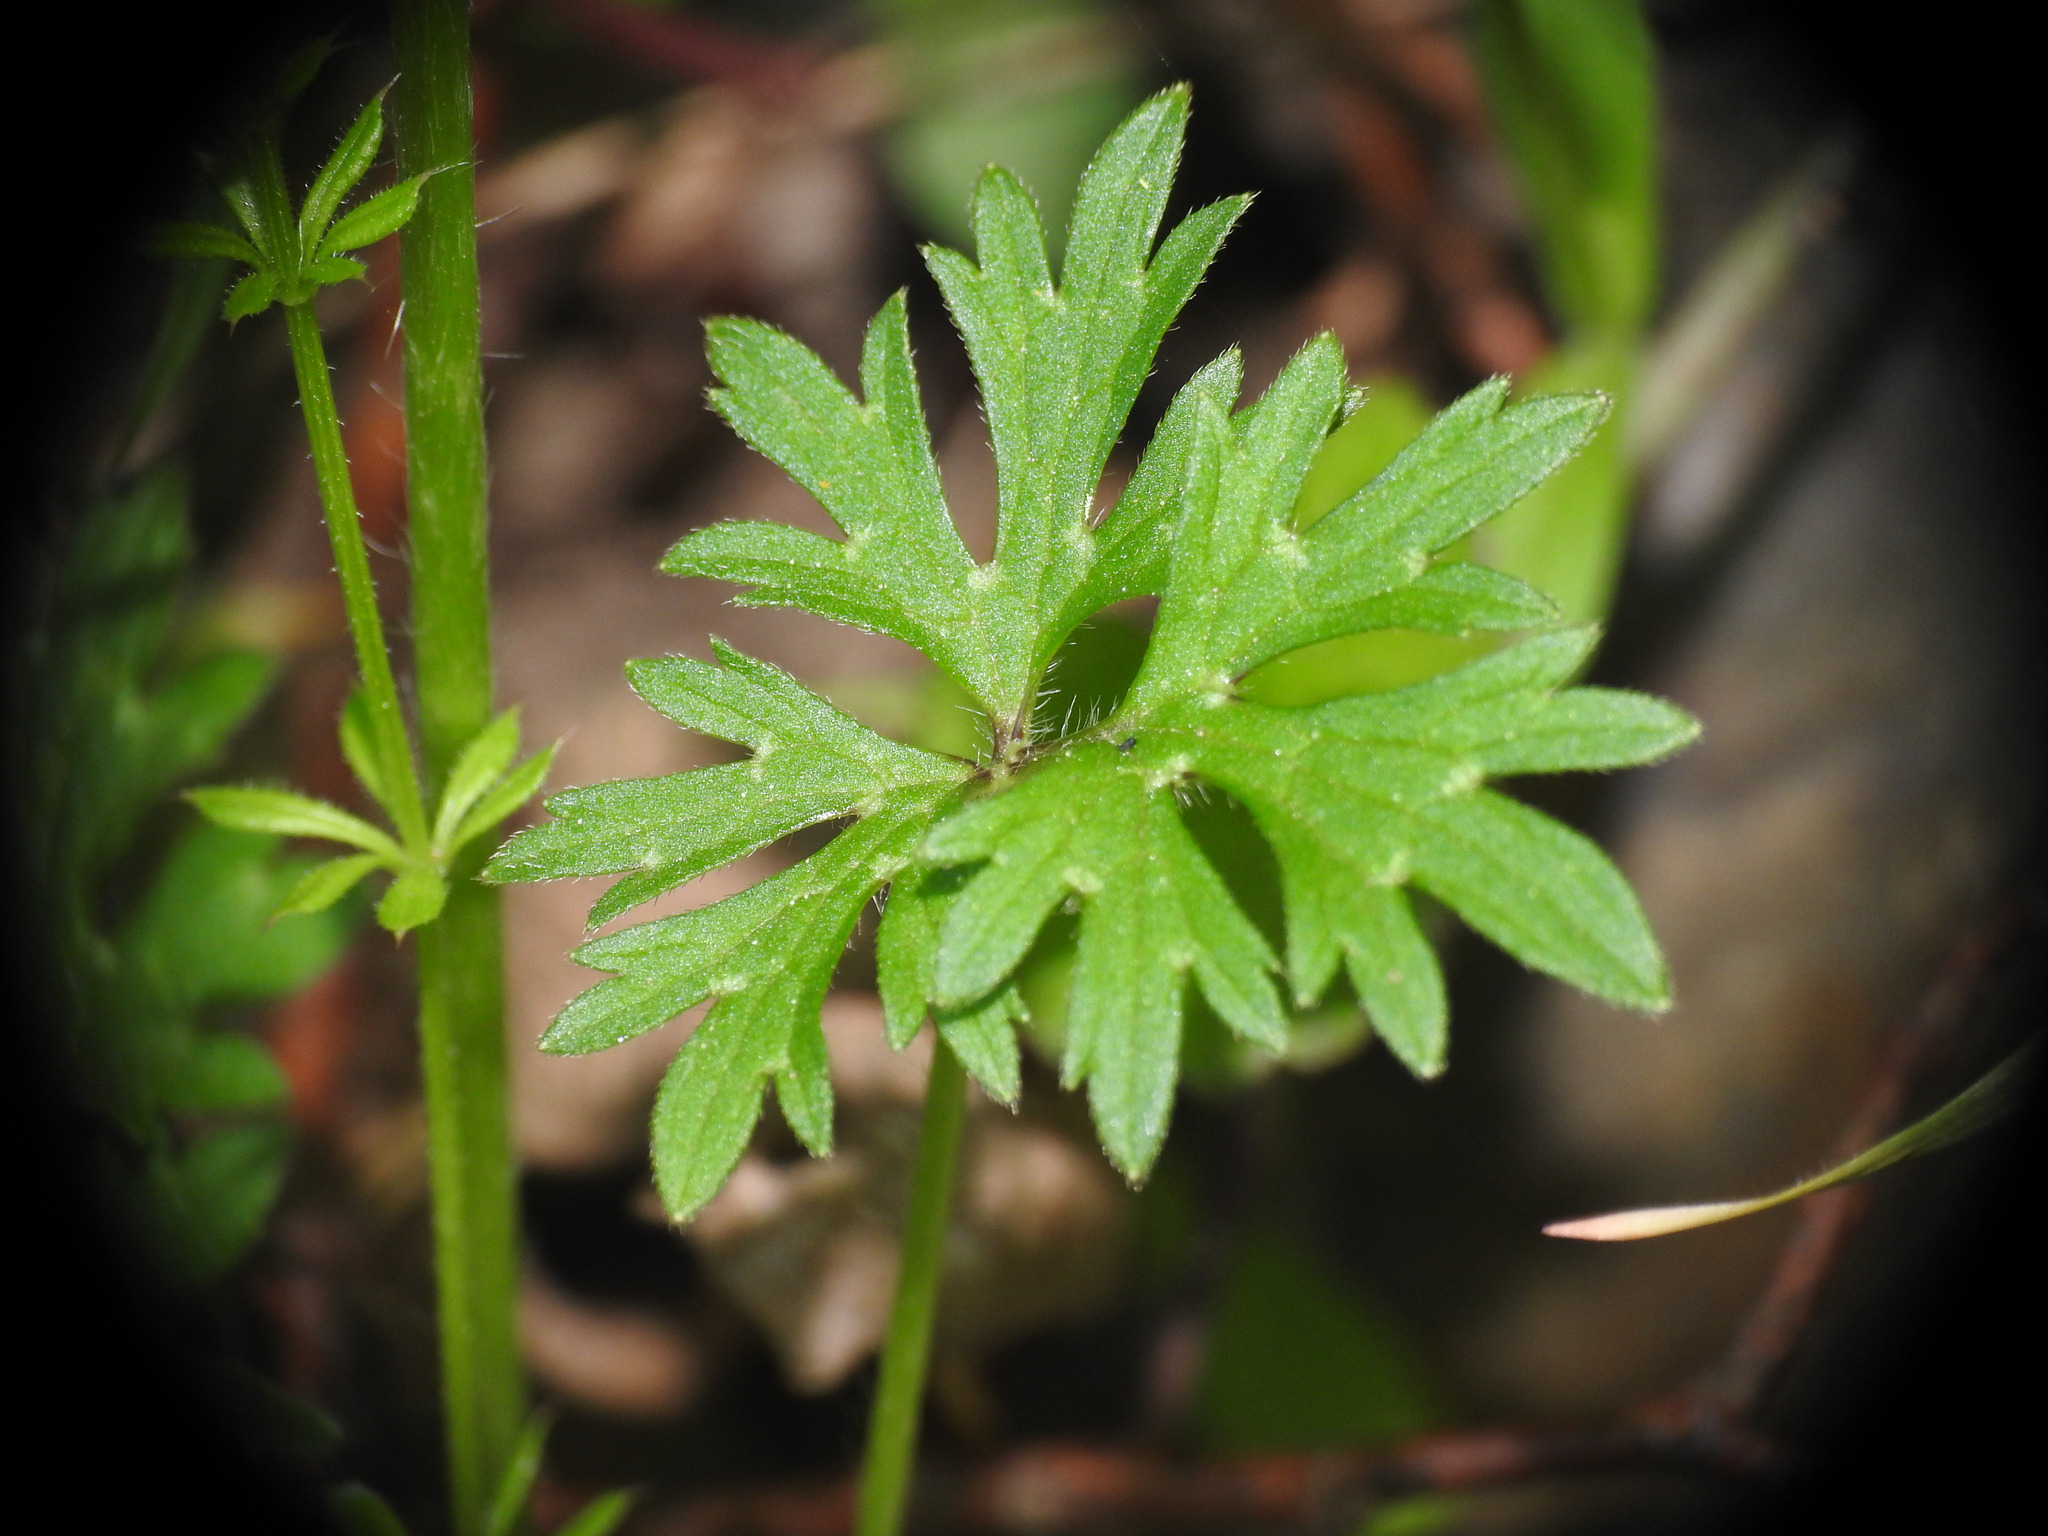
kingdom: Plantae
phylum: Tracheophyta
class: Magnoliopsida
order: Ranunculales
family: Ranunculaceae
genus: Ranunculus
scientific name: Ranunculus bulbosus
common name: Bulbous buttercup
